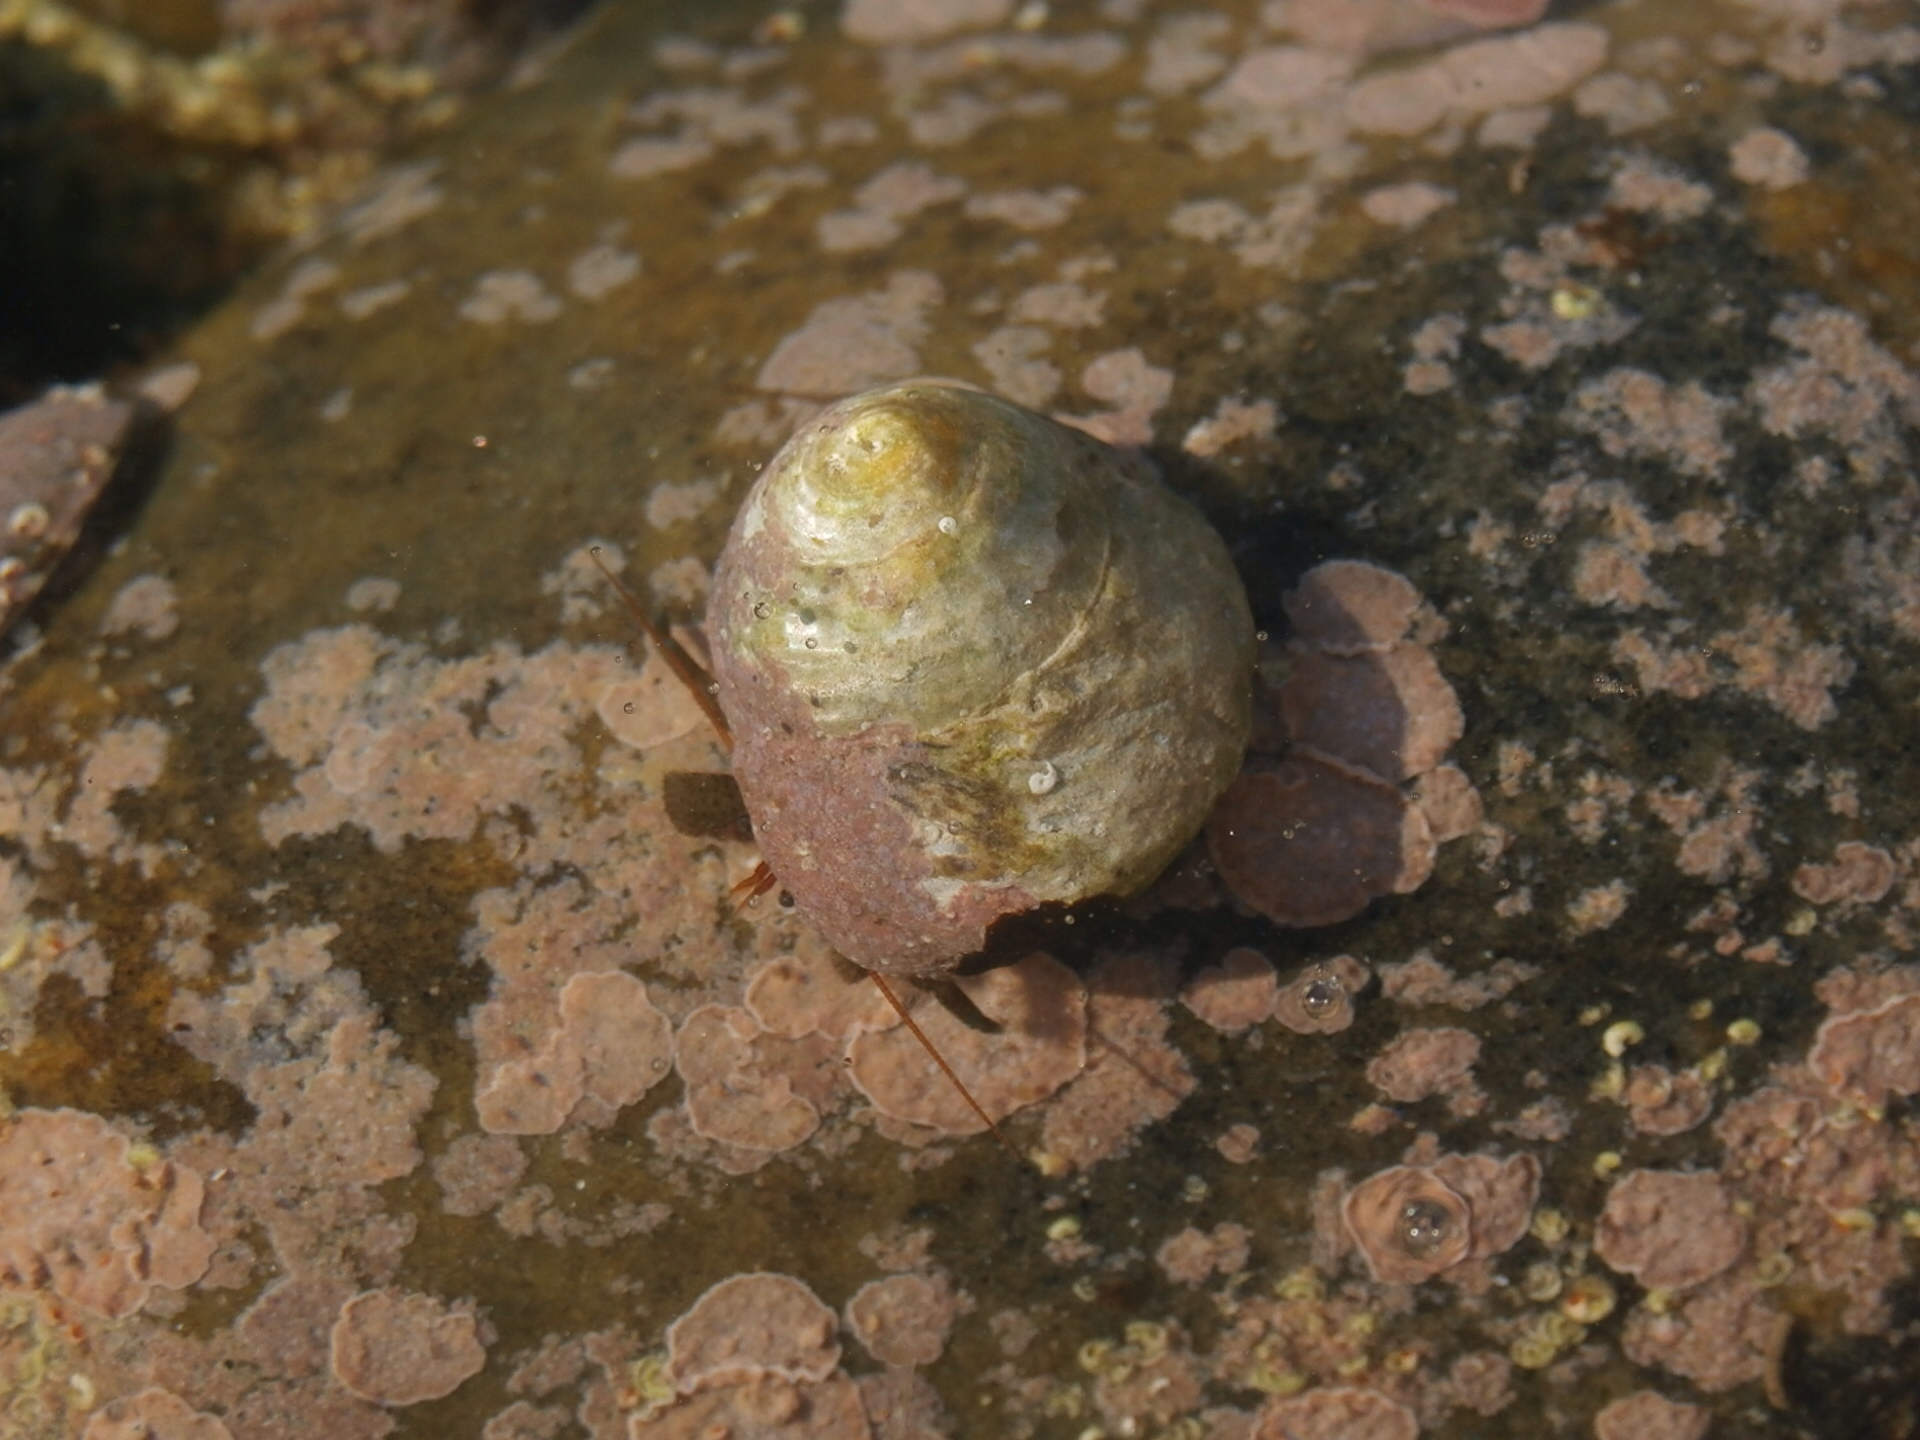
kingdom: Animalia
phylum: Arthropoda
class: Malacostraca
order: Decapoda
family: Paguridae
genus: Pagurus
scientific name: Pagurus samuelis
